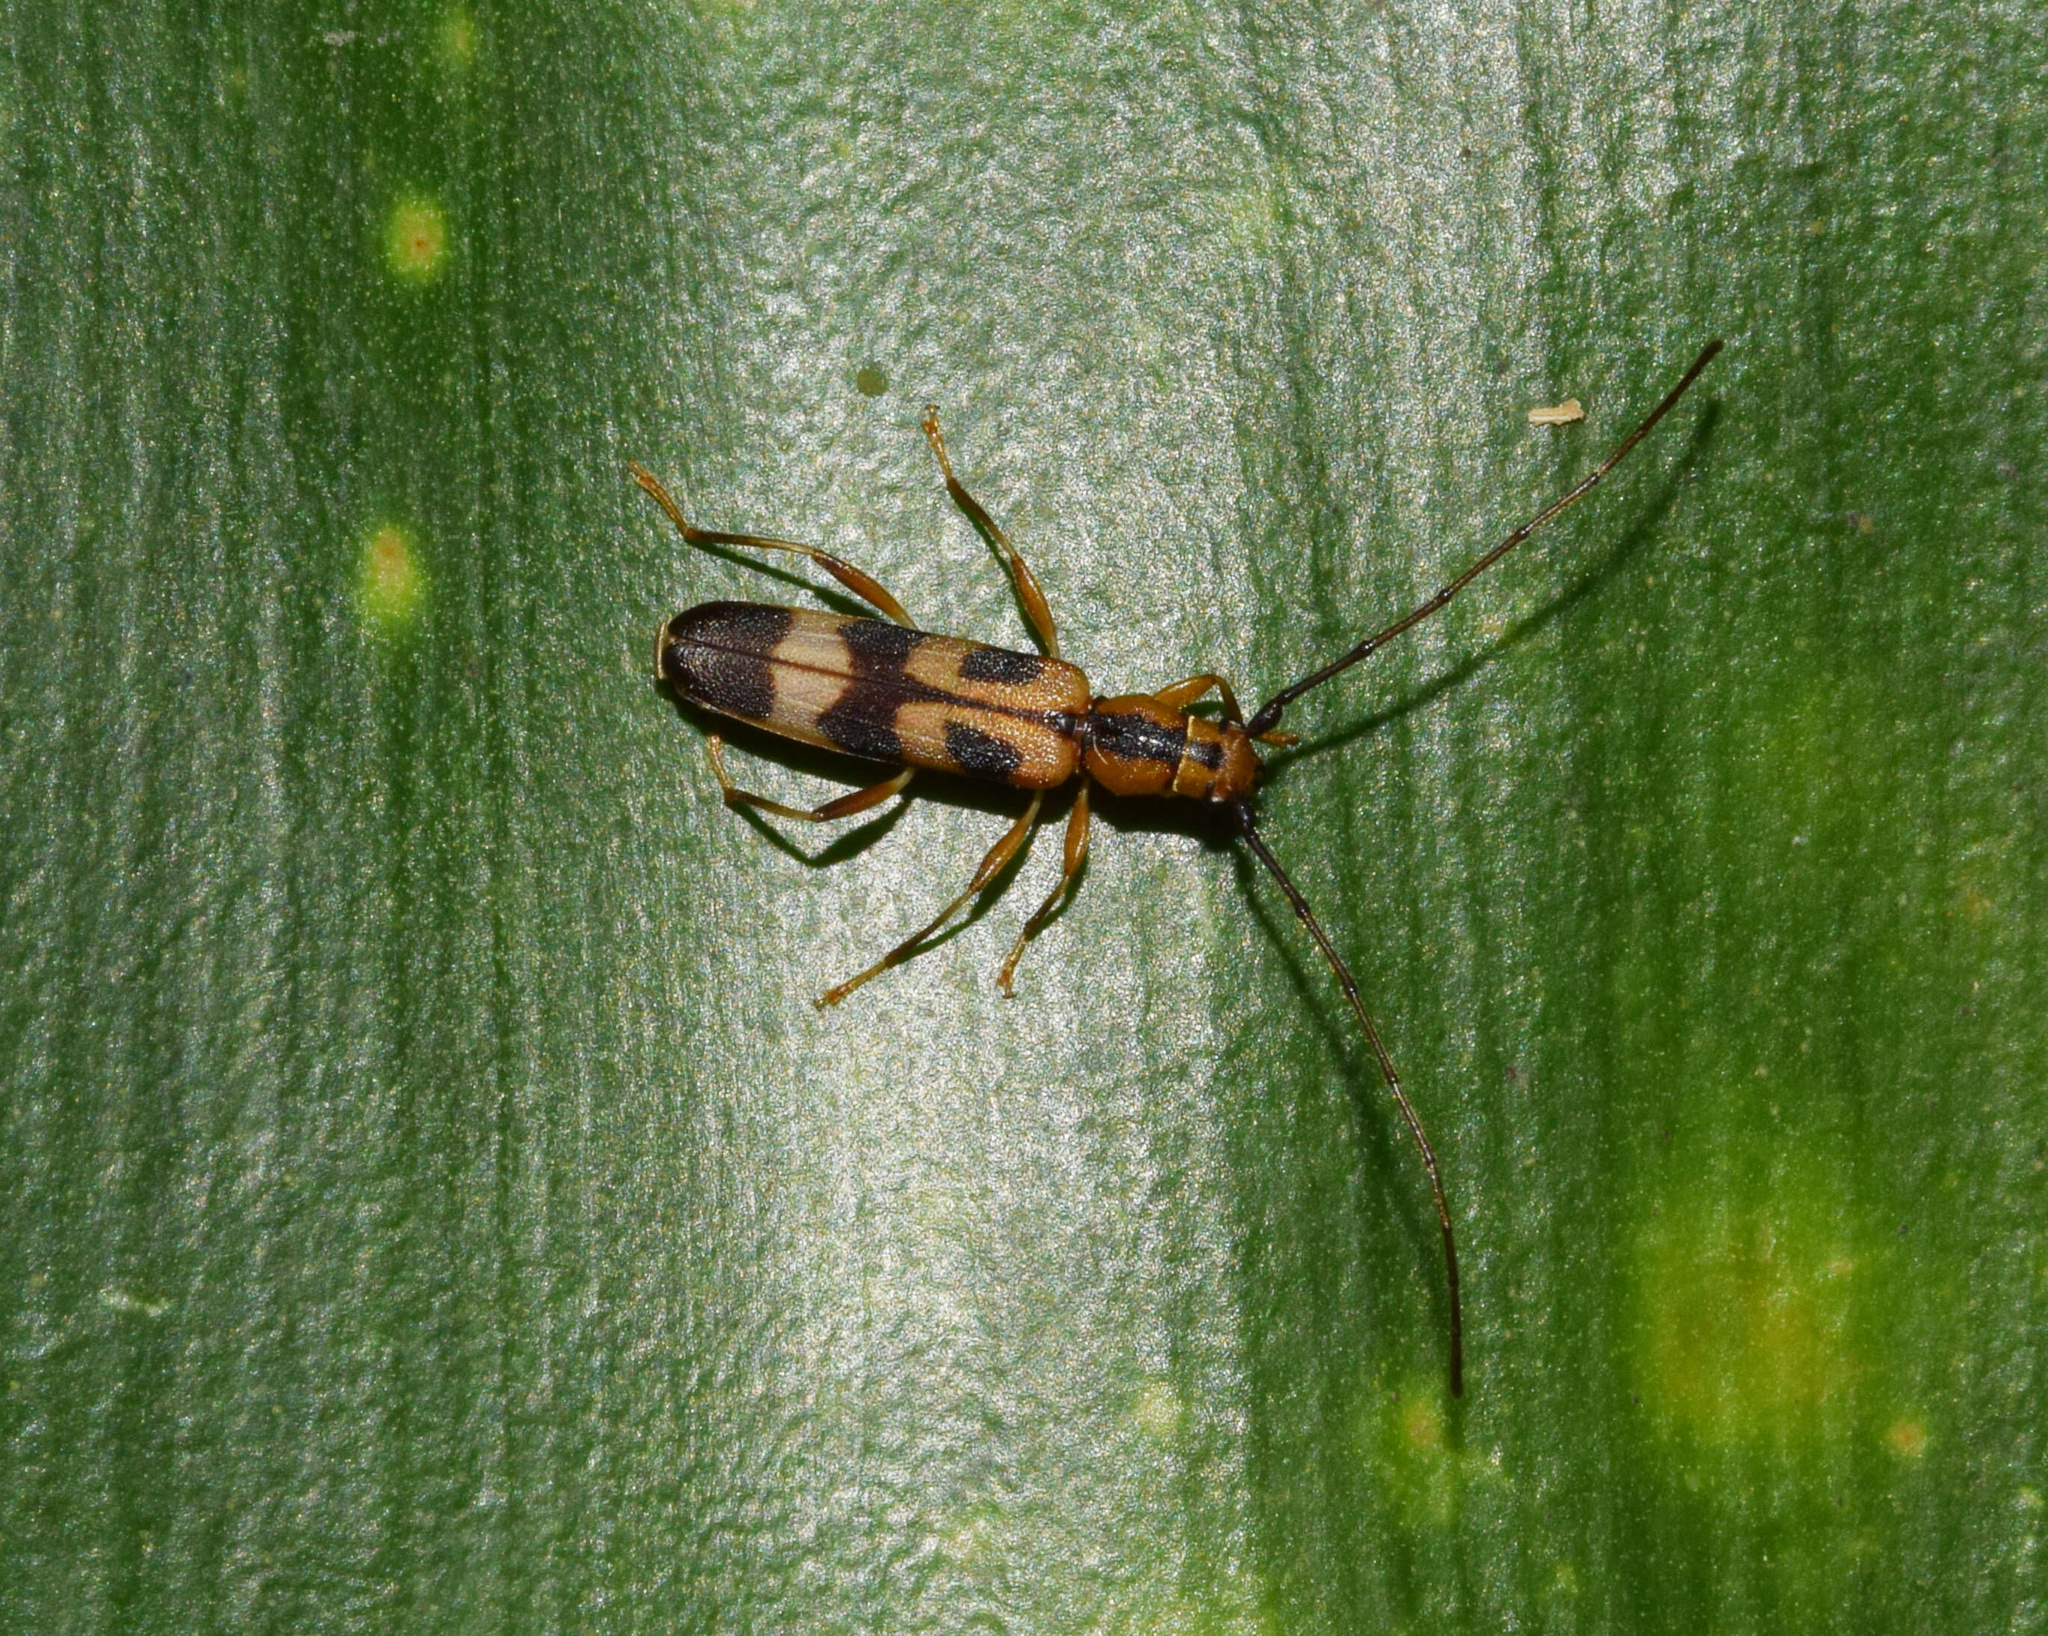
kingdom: Animalia
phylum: Arthropoda
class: Insecta
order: Coleoptera
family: Cerambycidae
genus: Ethiolygrus
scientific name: Ethiolygrus
